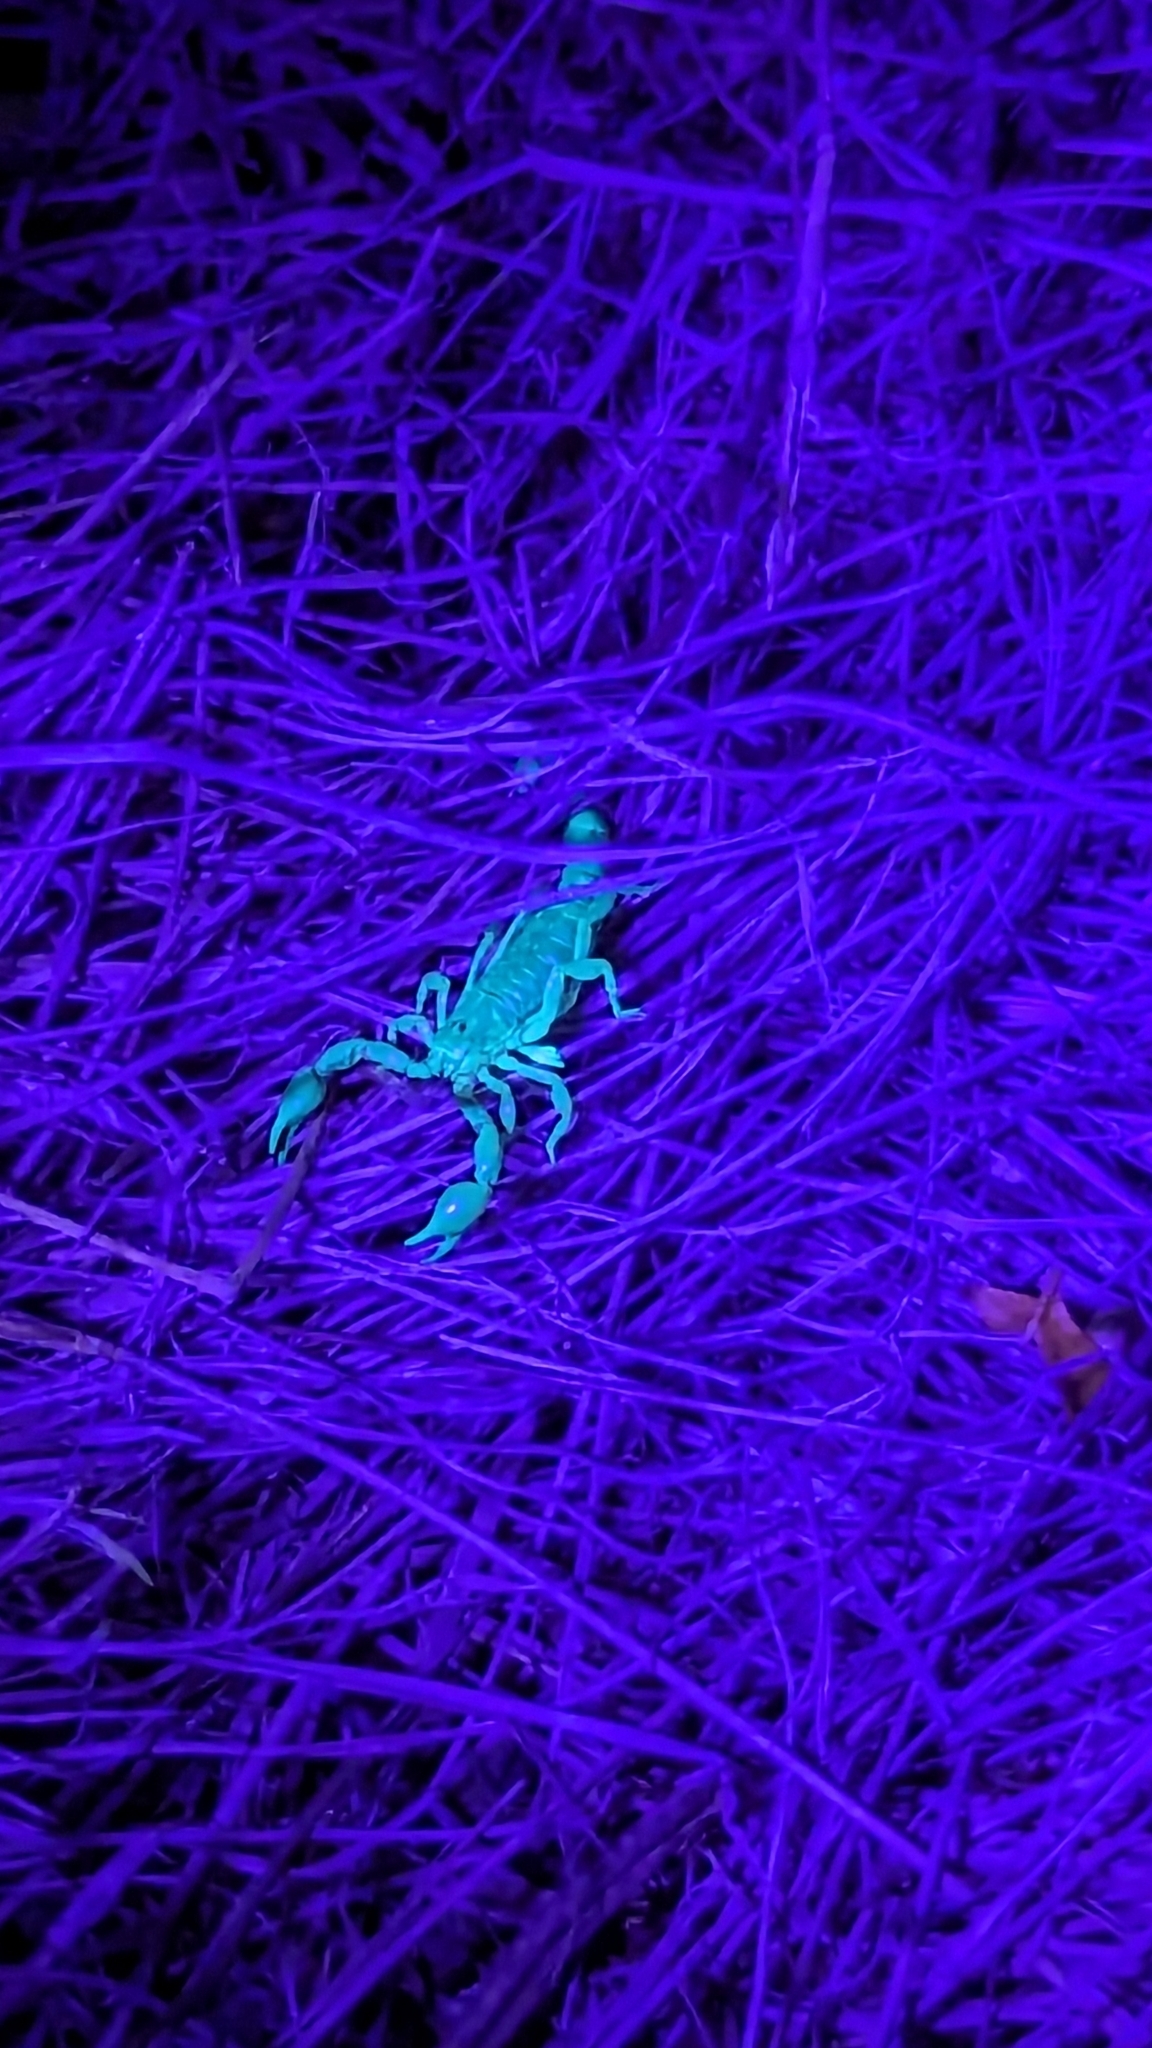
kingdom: Animalia
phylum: Arthropoda
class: Arachnida
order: Scorpiones
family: Superstitioniidae
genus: Superstitionia
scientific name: Superstitionia donensis
